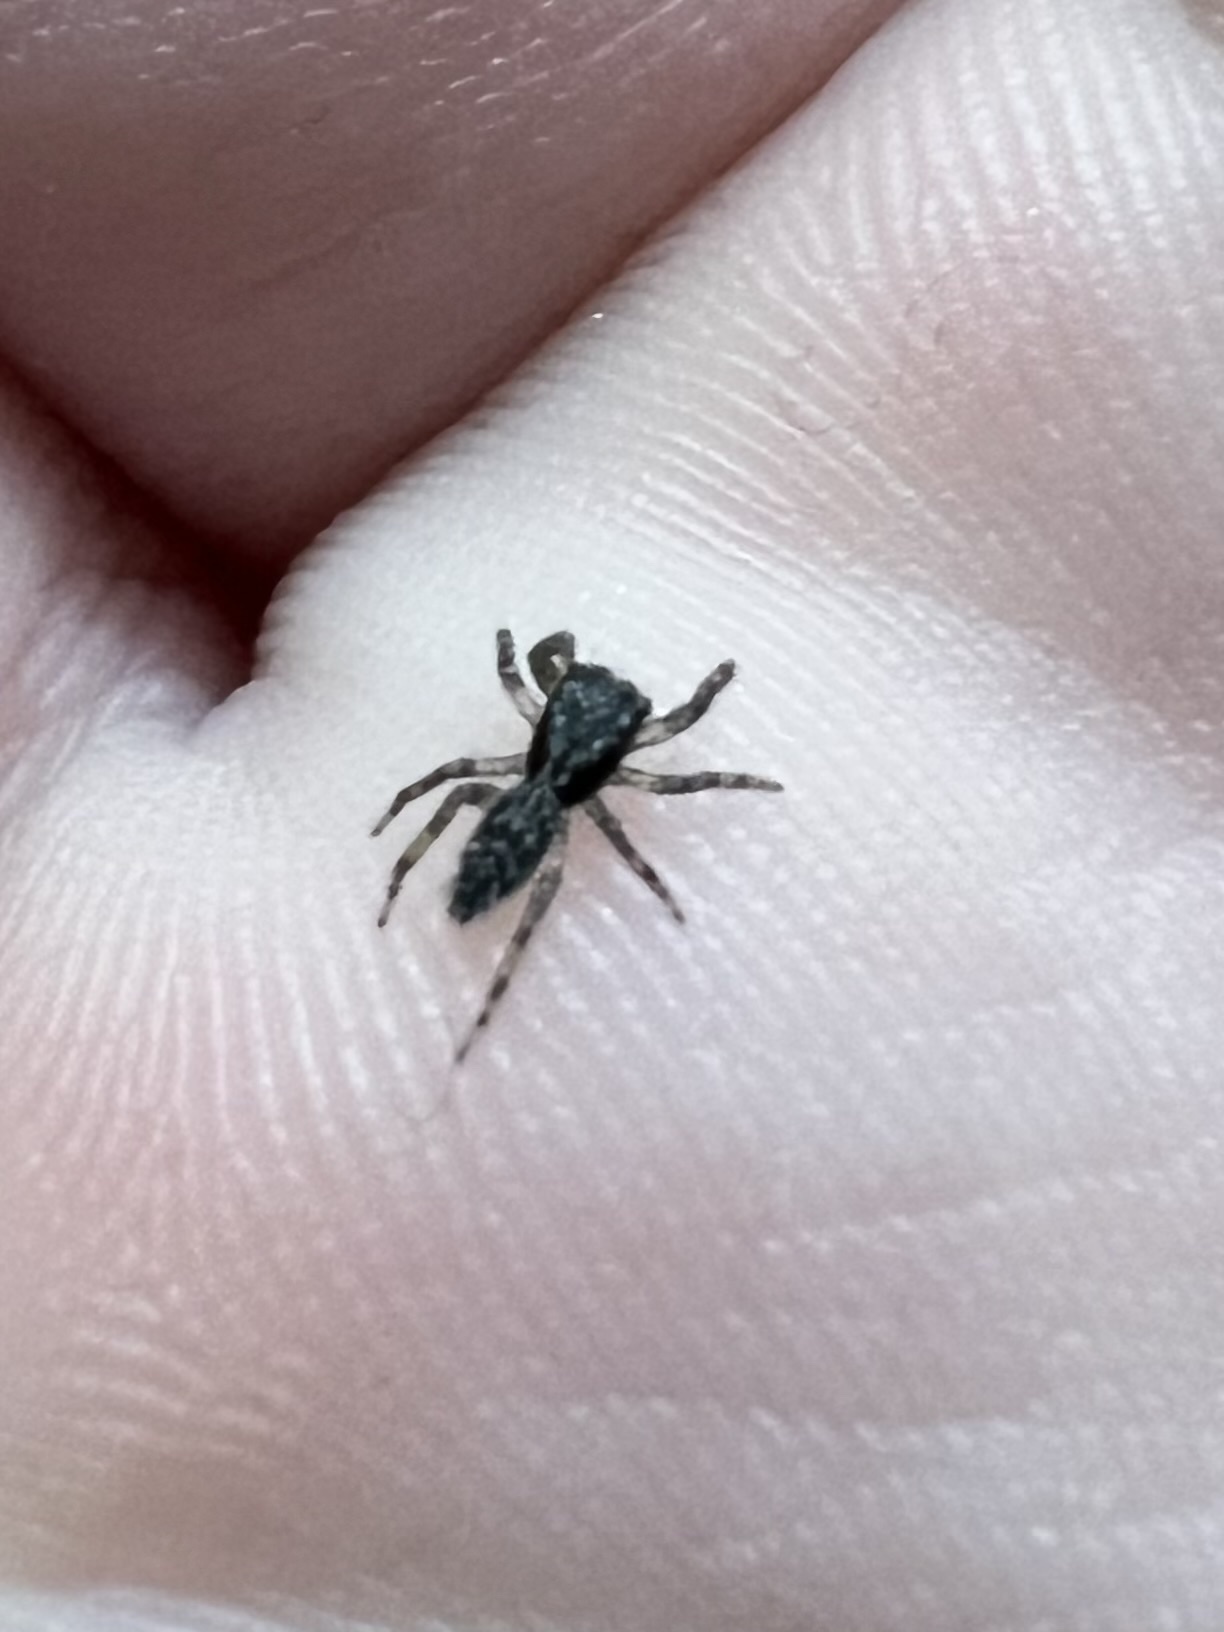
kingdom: Animalia
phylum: Arthropoda
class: Arachnida
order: Araneae
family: Salticidae
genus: Platycryptus
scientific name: Platycryptus californicus
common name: Jumping spiders
